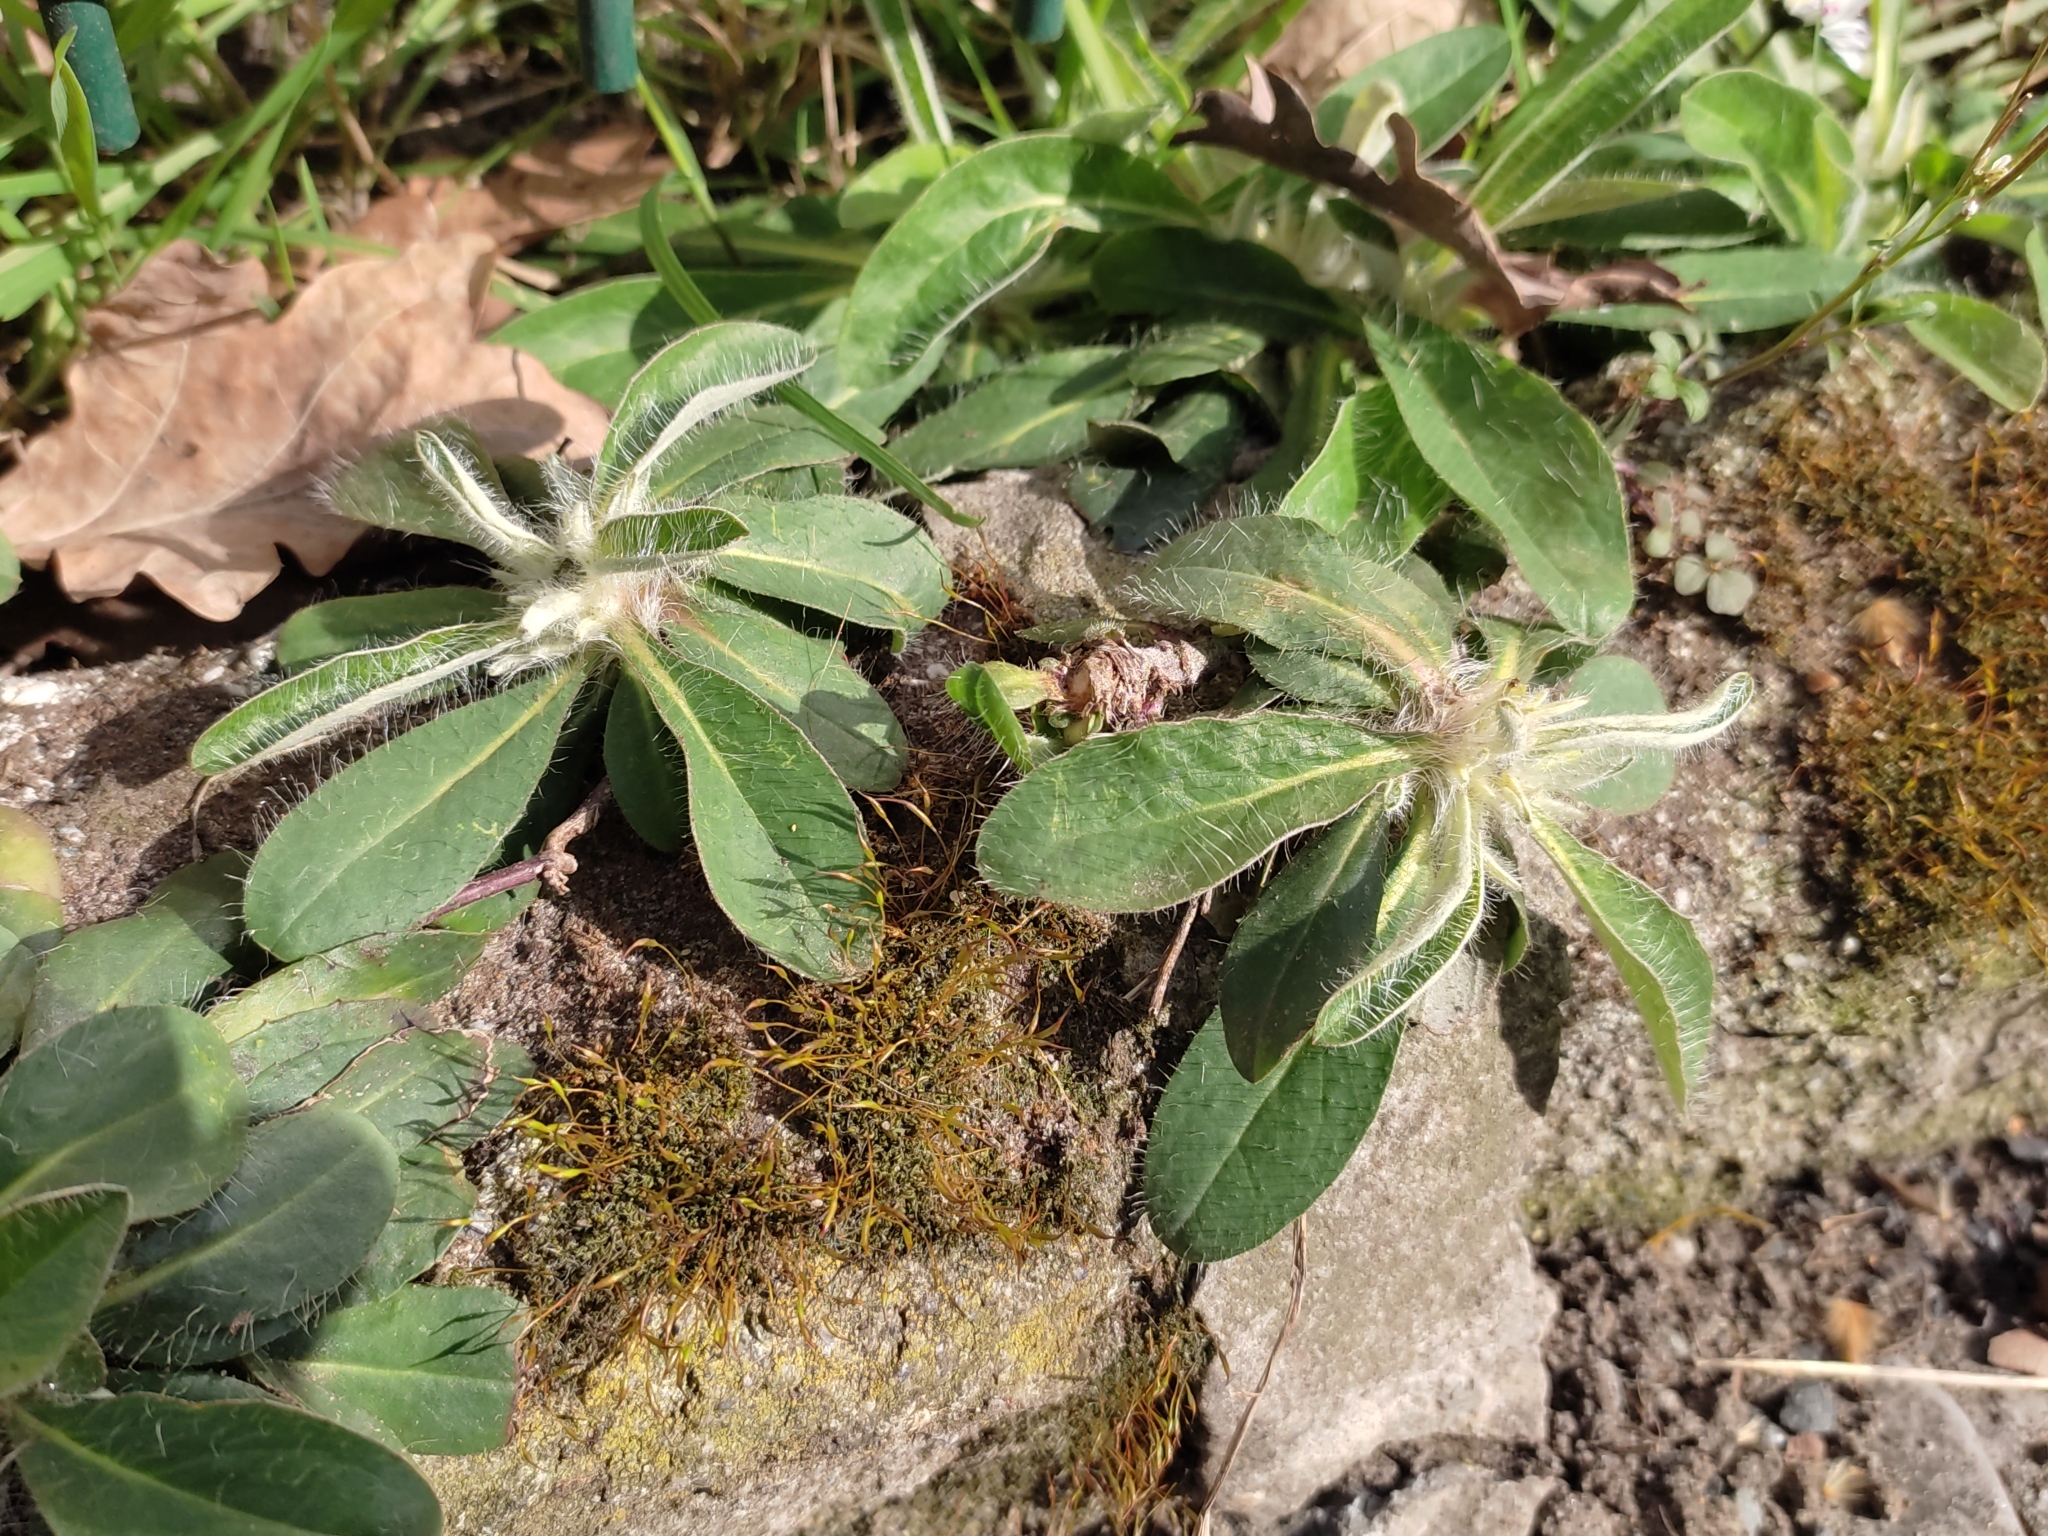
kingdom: Plantae
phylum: Tracheophyta
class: Magnoliopsida
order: Asterales
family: Asteraceae
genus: Pilosella
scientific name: Pilosella officinarum
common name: Mouse-ear hawkweed
